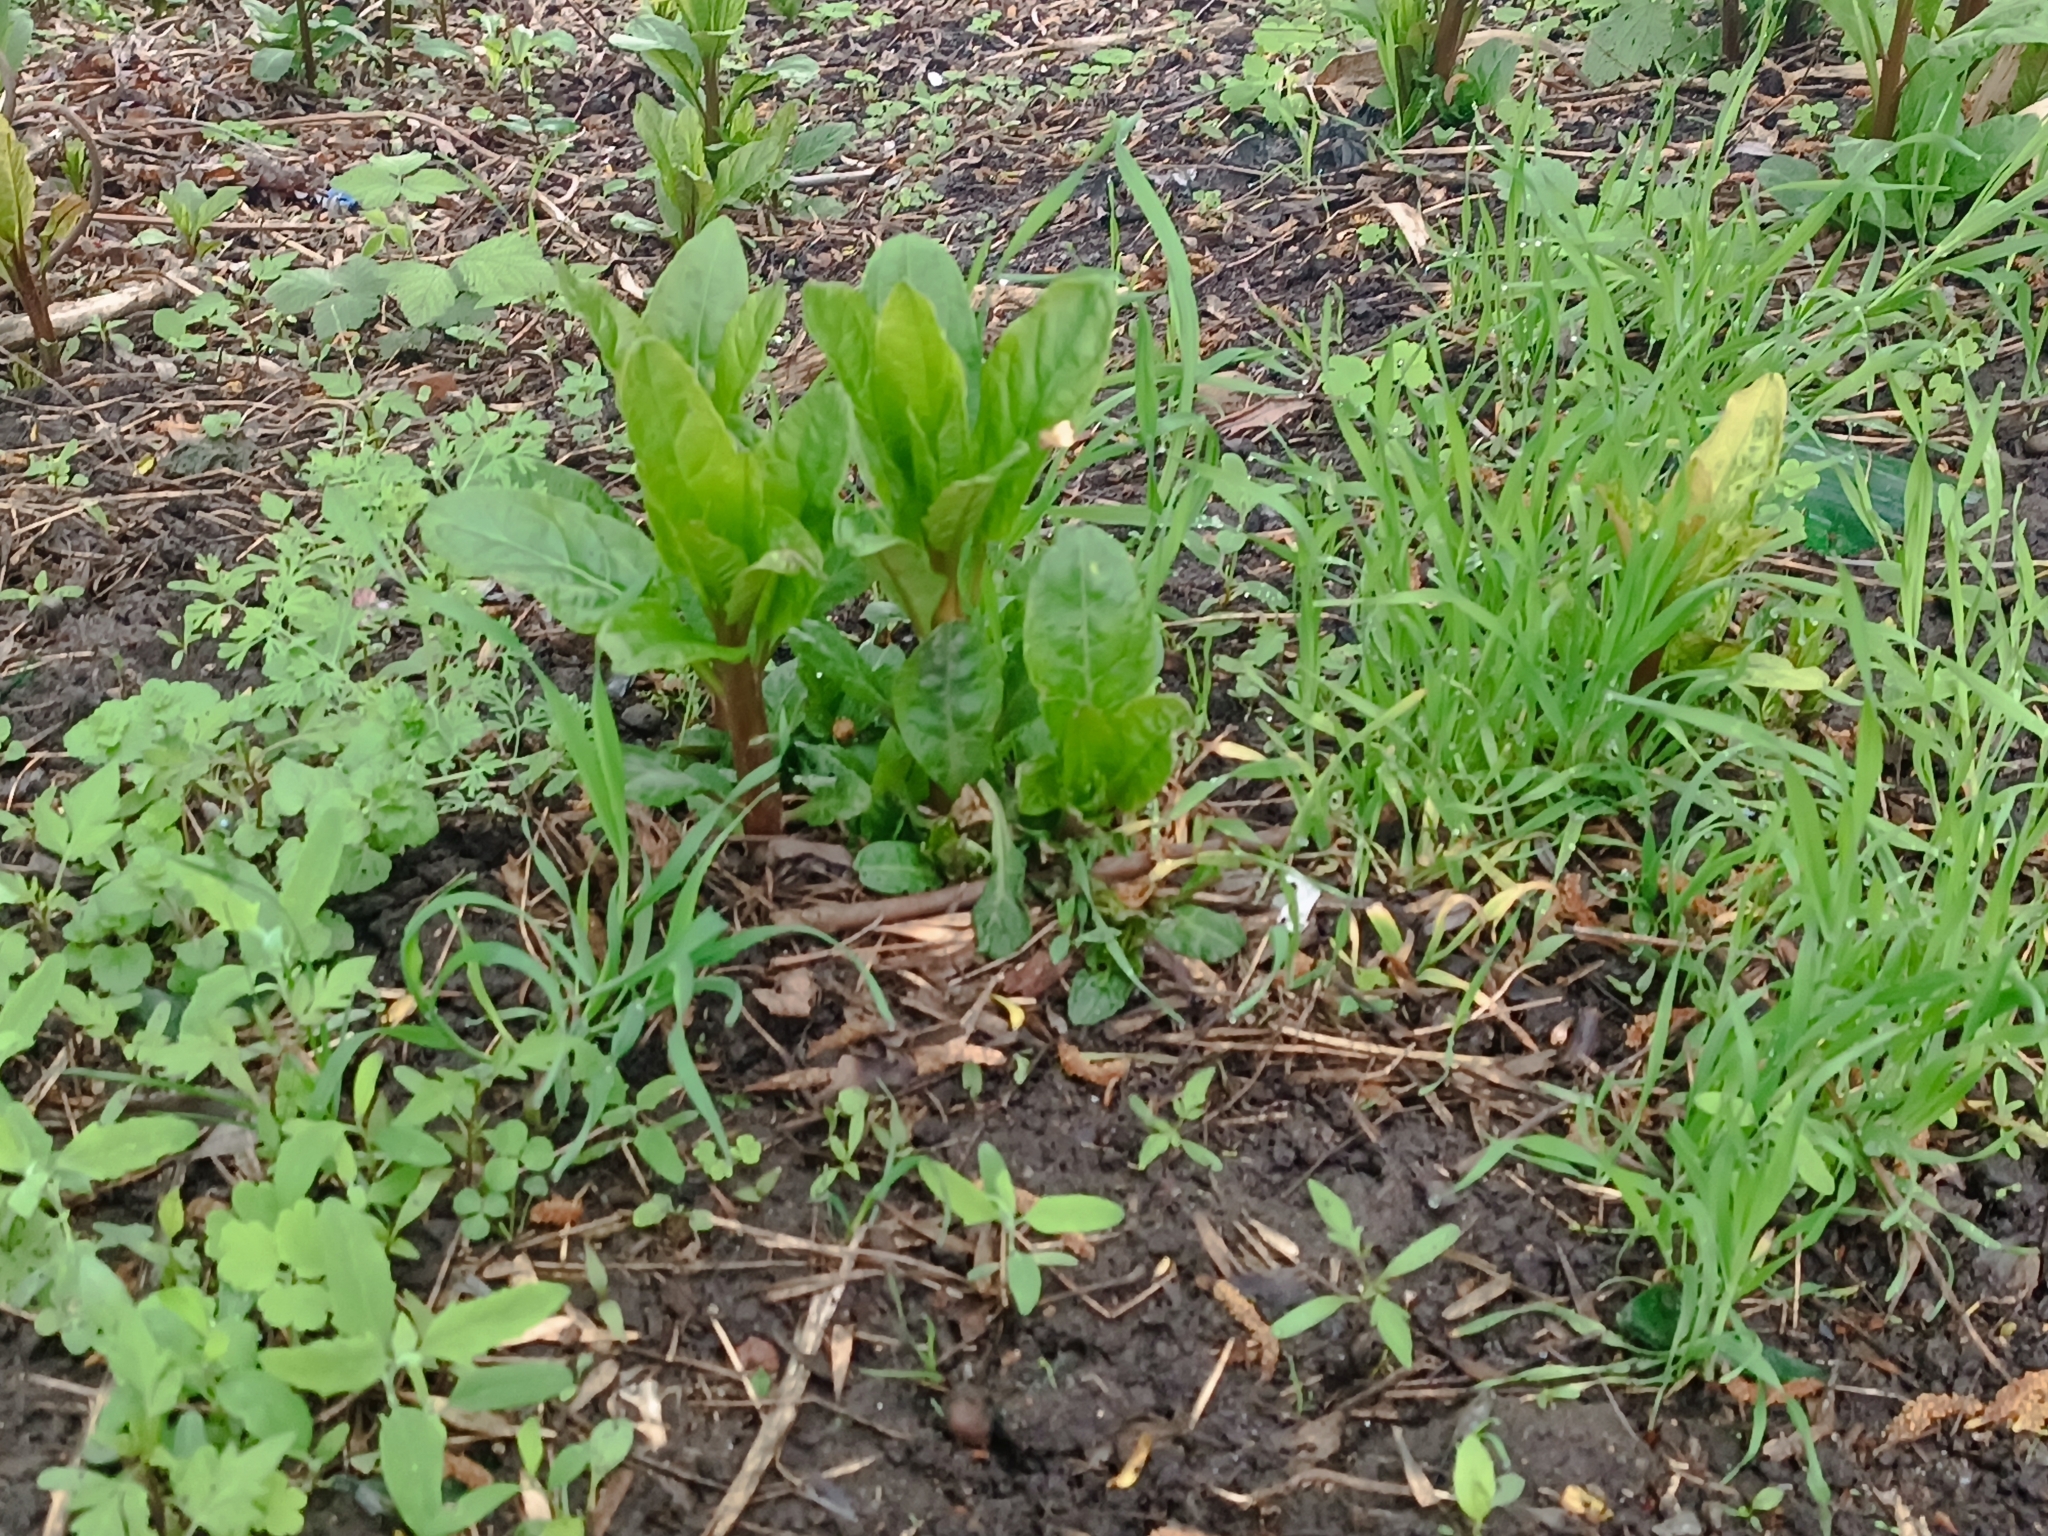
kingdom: Plantae
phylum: Tracheophyta
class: Magnoliopsida
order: Caryophyllales
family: Phytolaccaceae
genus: Phytolacca
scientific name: Phytolacca americana
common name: American pokeweed
